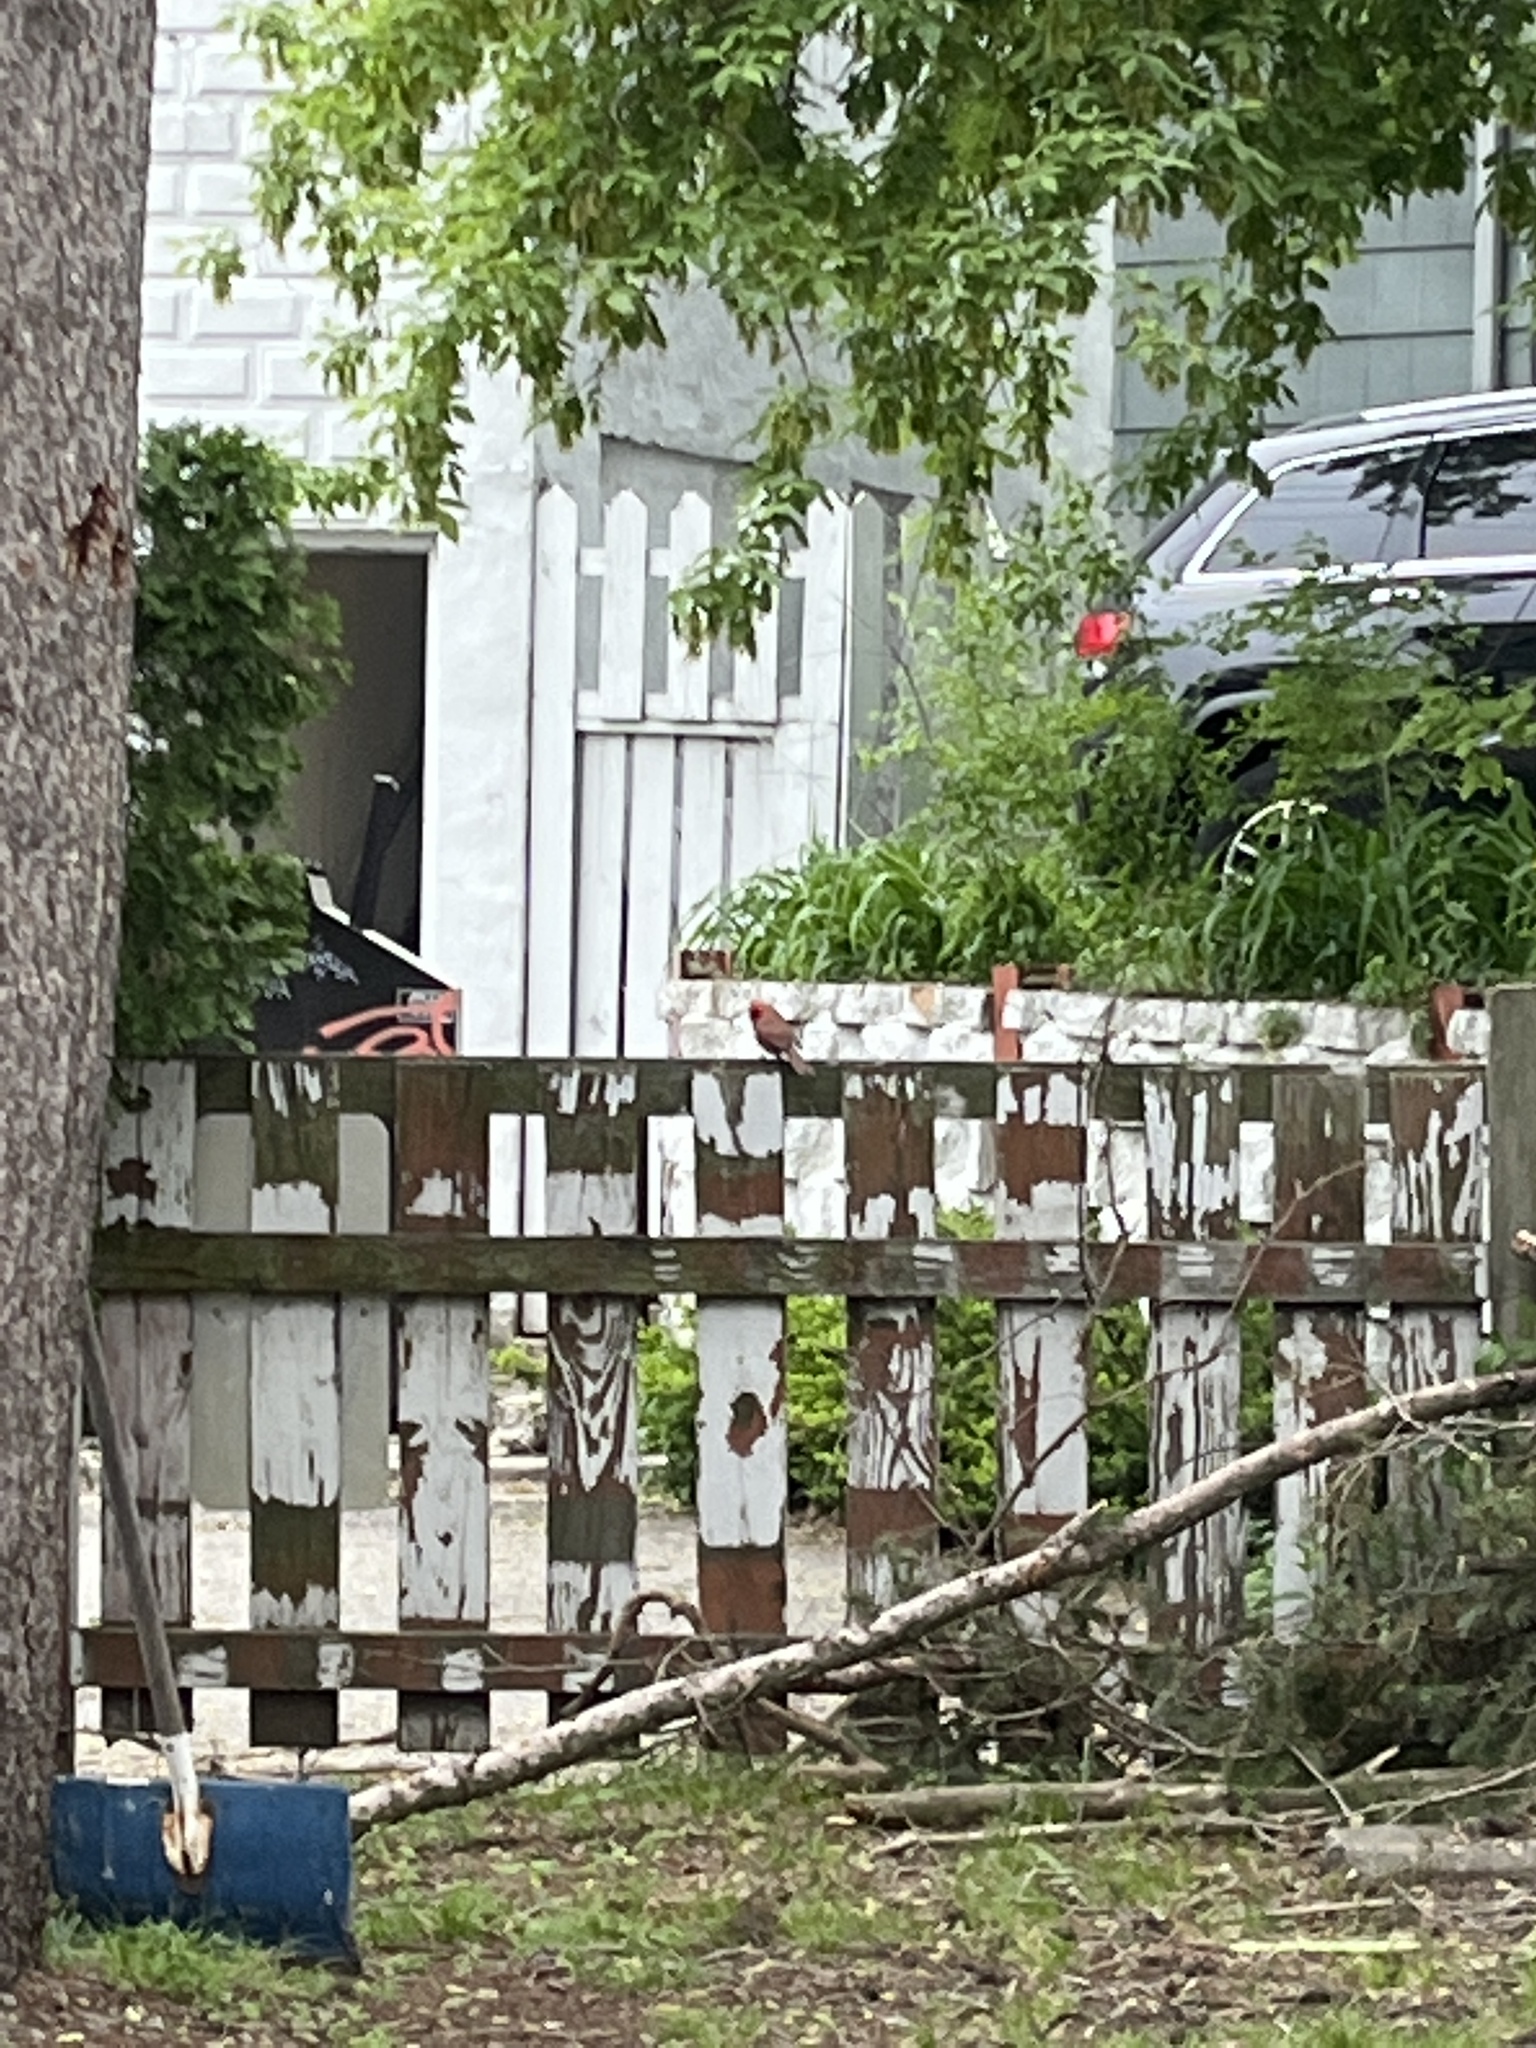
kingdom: Animalia
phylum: Chordata
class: Aves
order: Passeriformes
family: Cardinalidae
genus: Cardinalis
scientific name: Cardinalis cardinalis
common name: Northern cardinal
